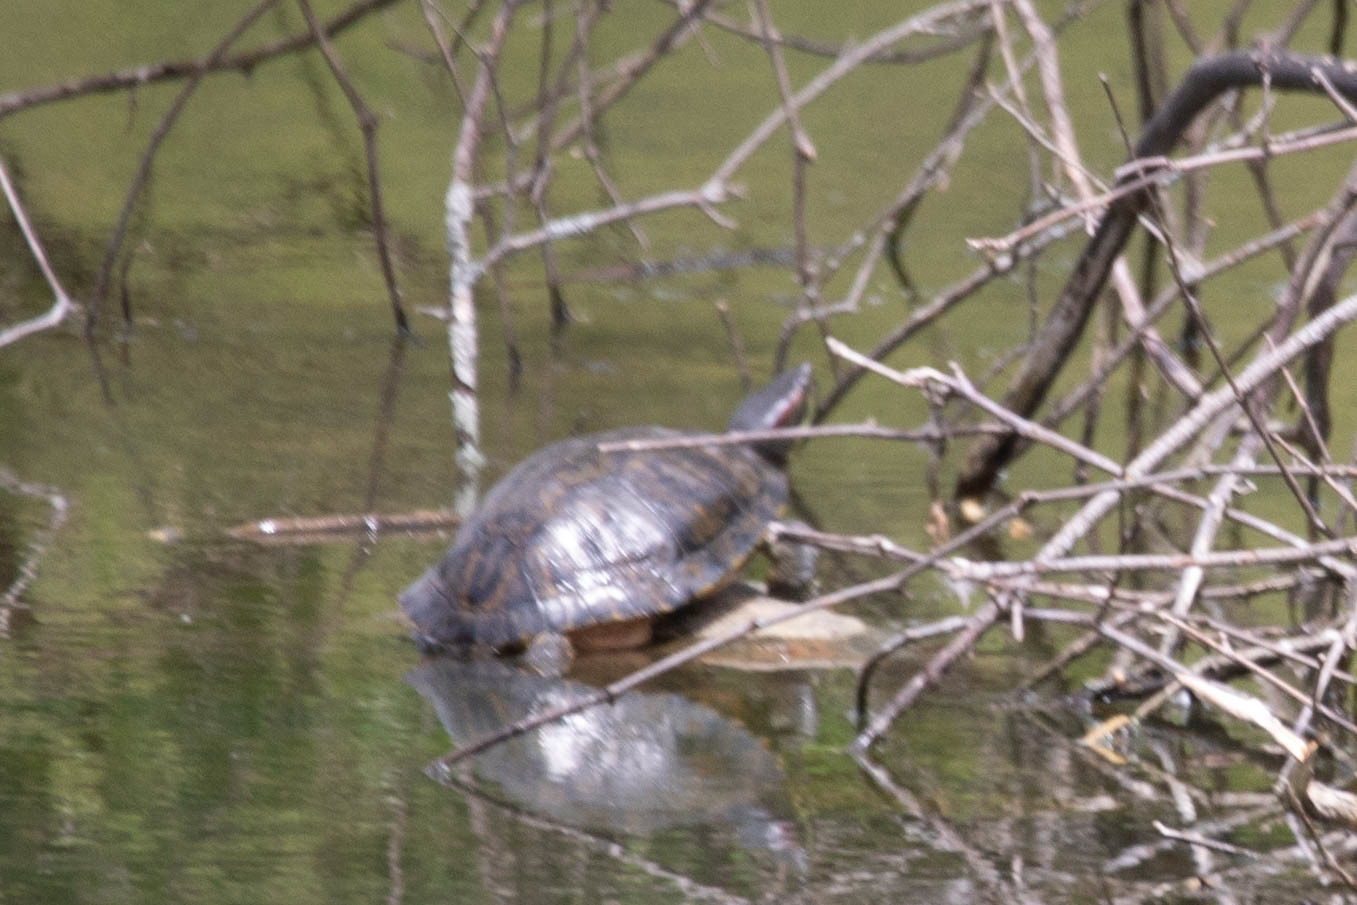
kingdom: Animalia
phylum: Chordata
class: Testudines
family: Emydidae
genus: Trachemys
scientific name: Trachemys scripta
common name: Slider
